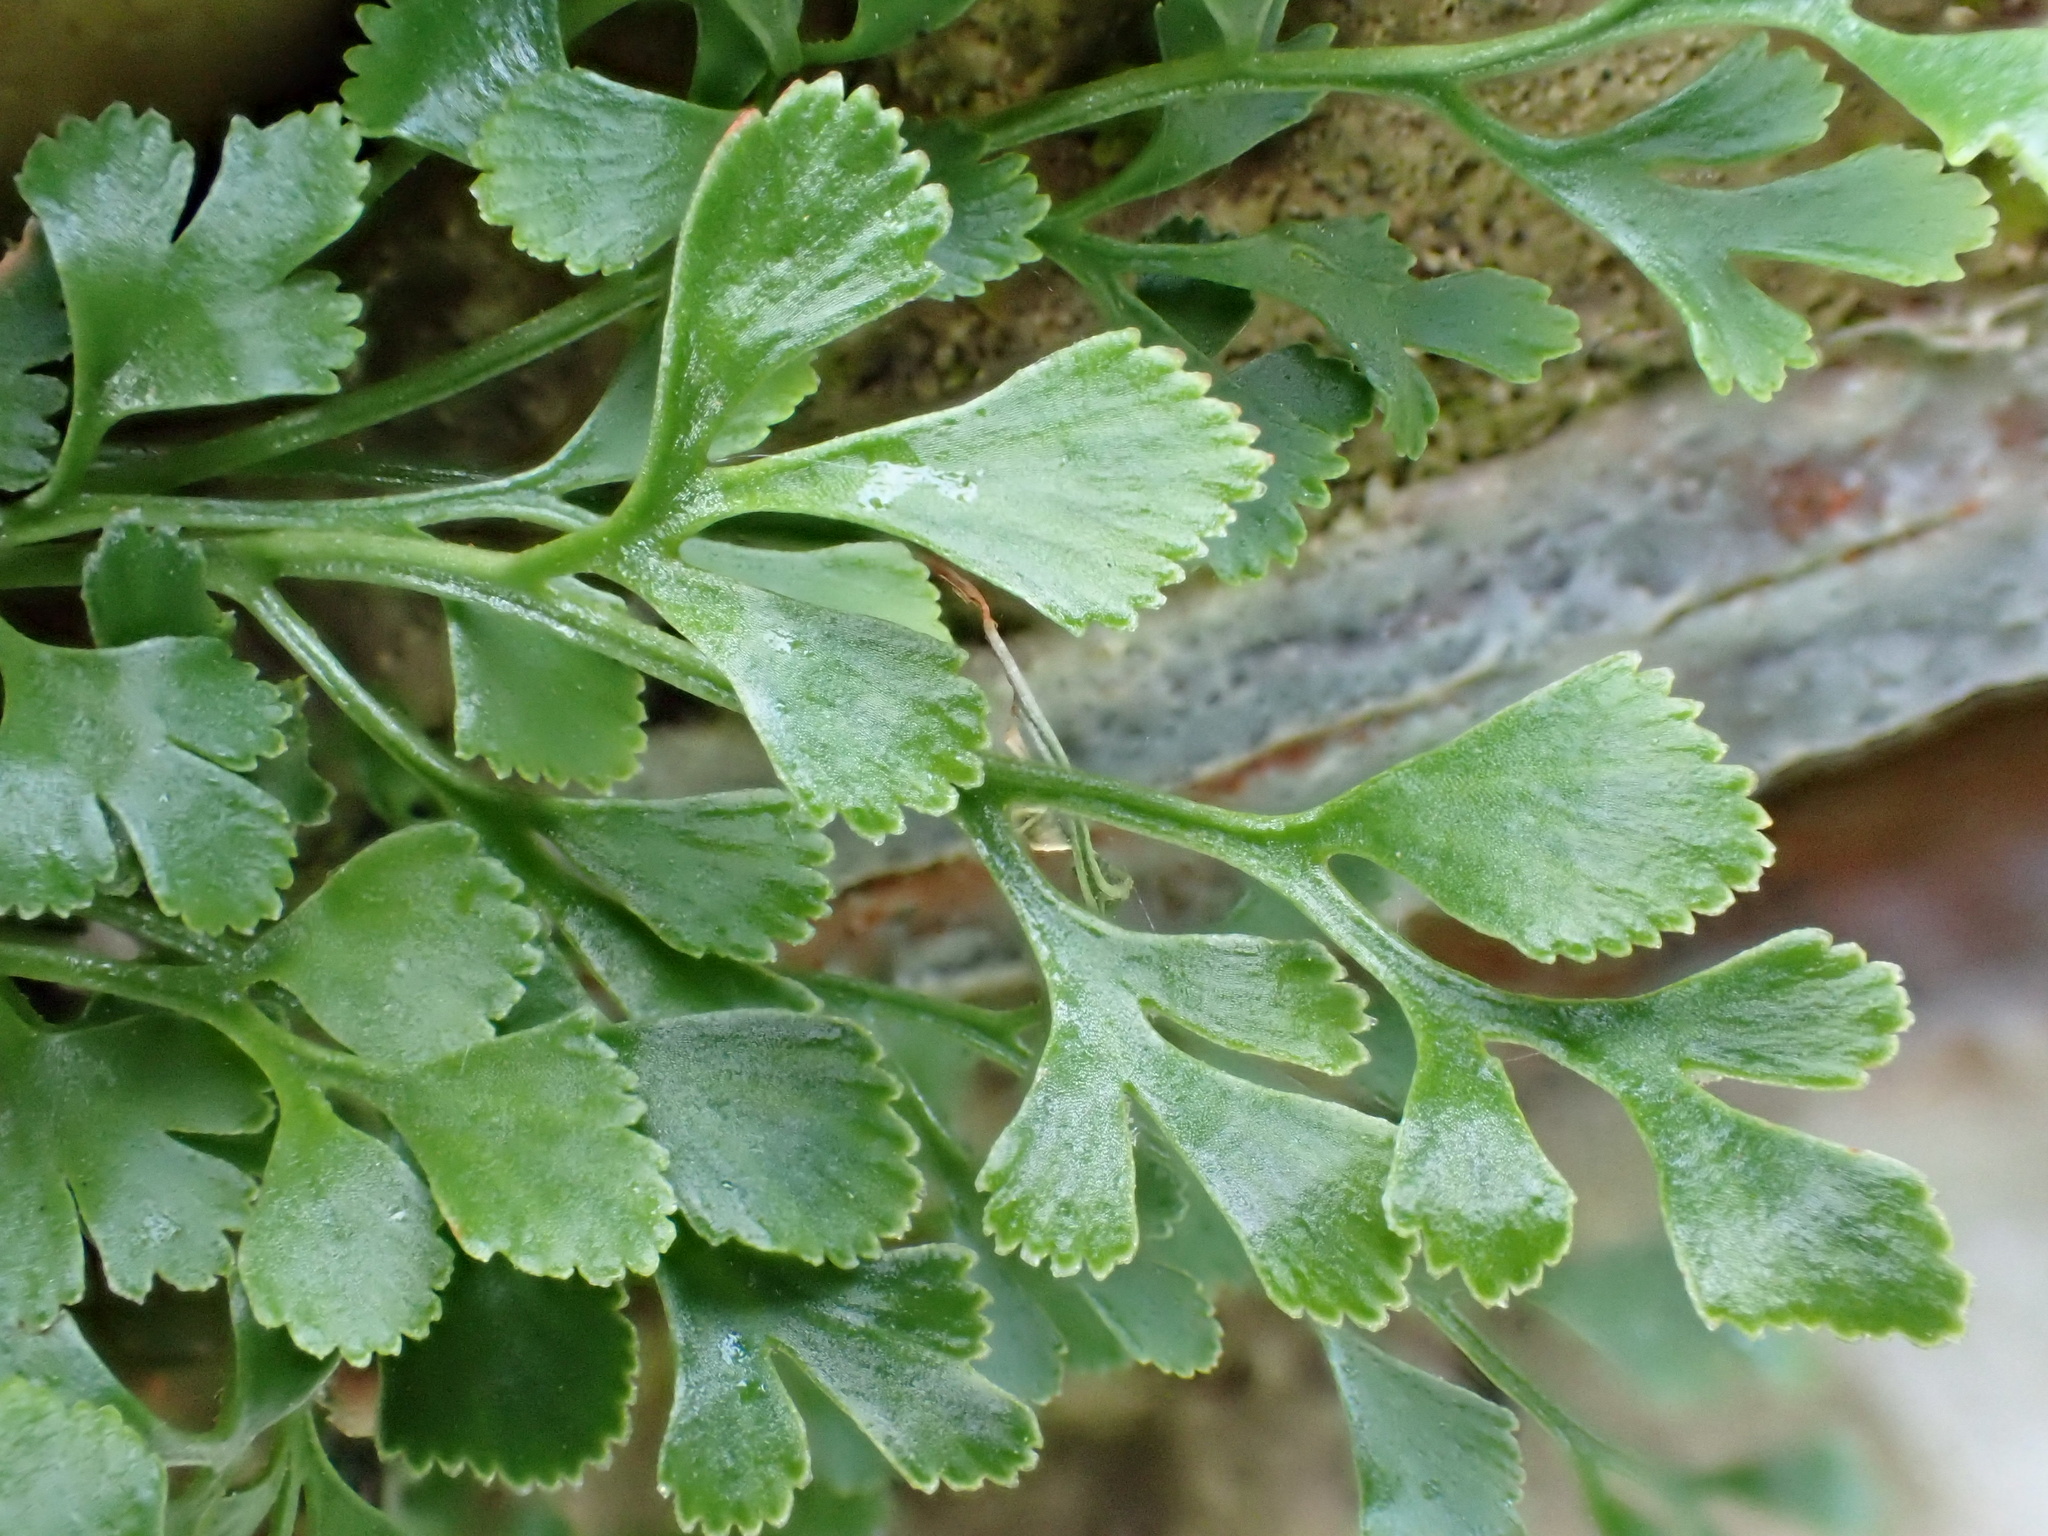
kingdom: Plantae
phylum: Tracheophyta
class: Polypodiopsida
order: Polypodiales
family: Aspleniaceae
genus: Asplenium
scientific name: Asplenium ruta-muraria
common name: Wall-rue
